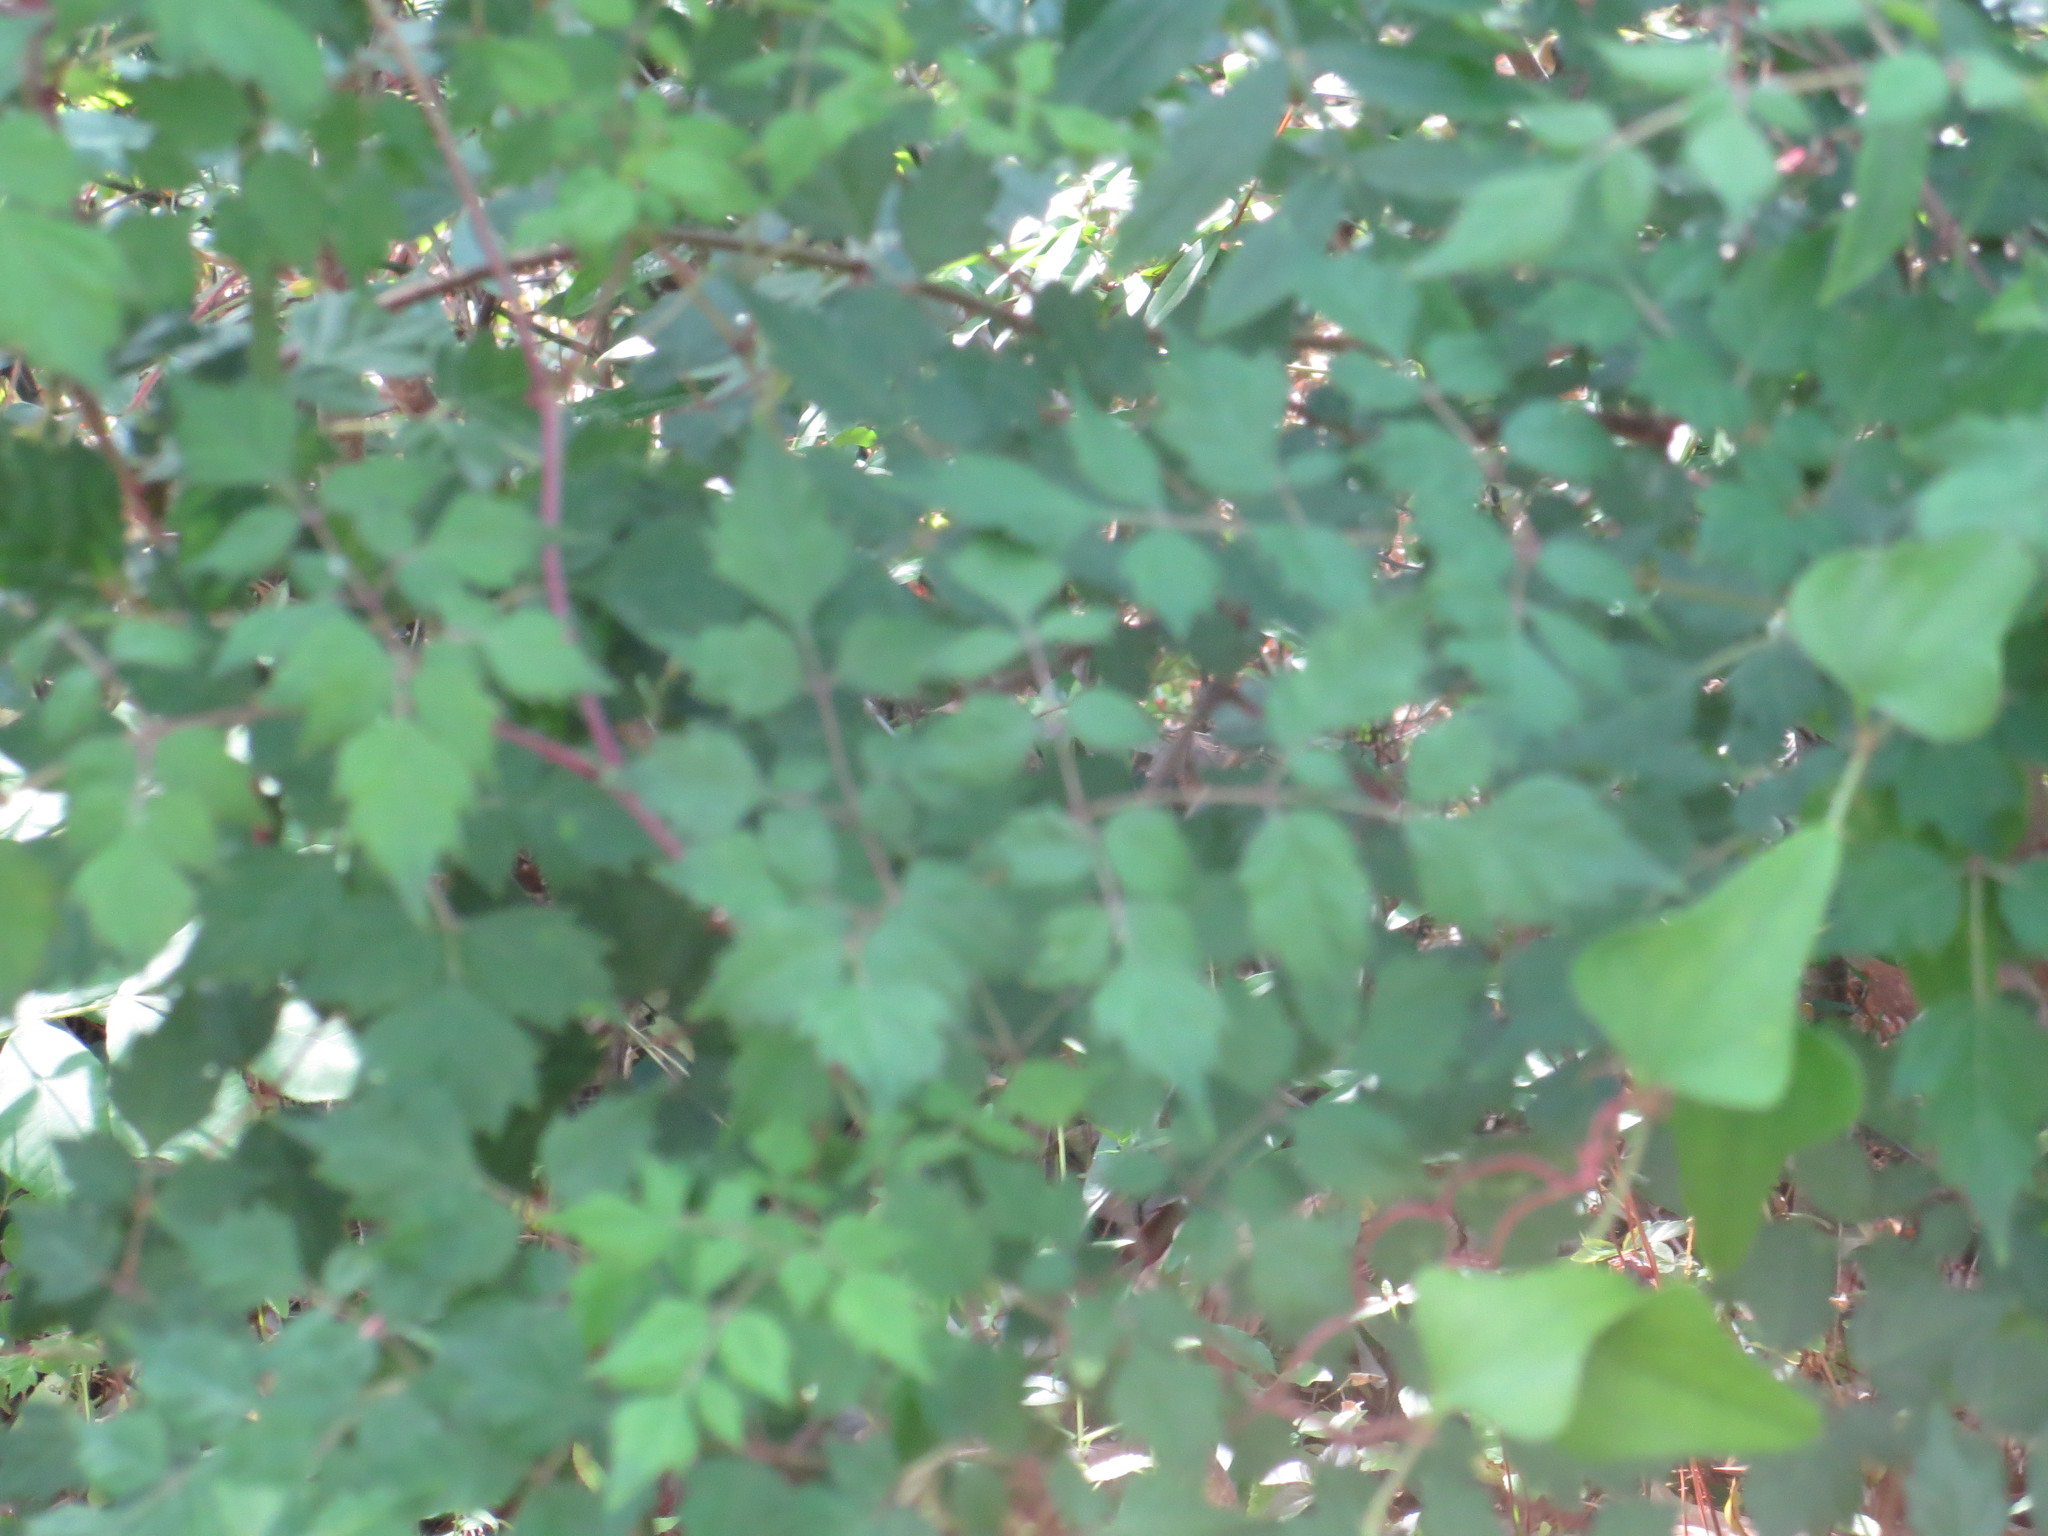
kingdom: Plantae
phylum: Tracheophyta
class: Magnoliopsida
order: Vitales
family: Vitaceae
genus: Nekemias
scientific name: Nekemias arborea
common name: Peppervine
